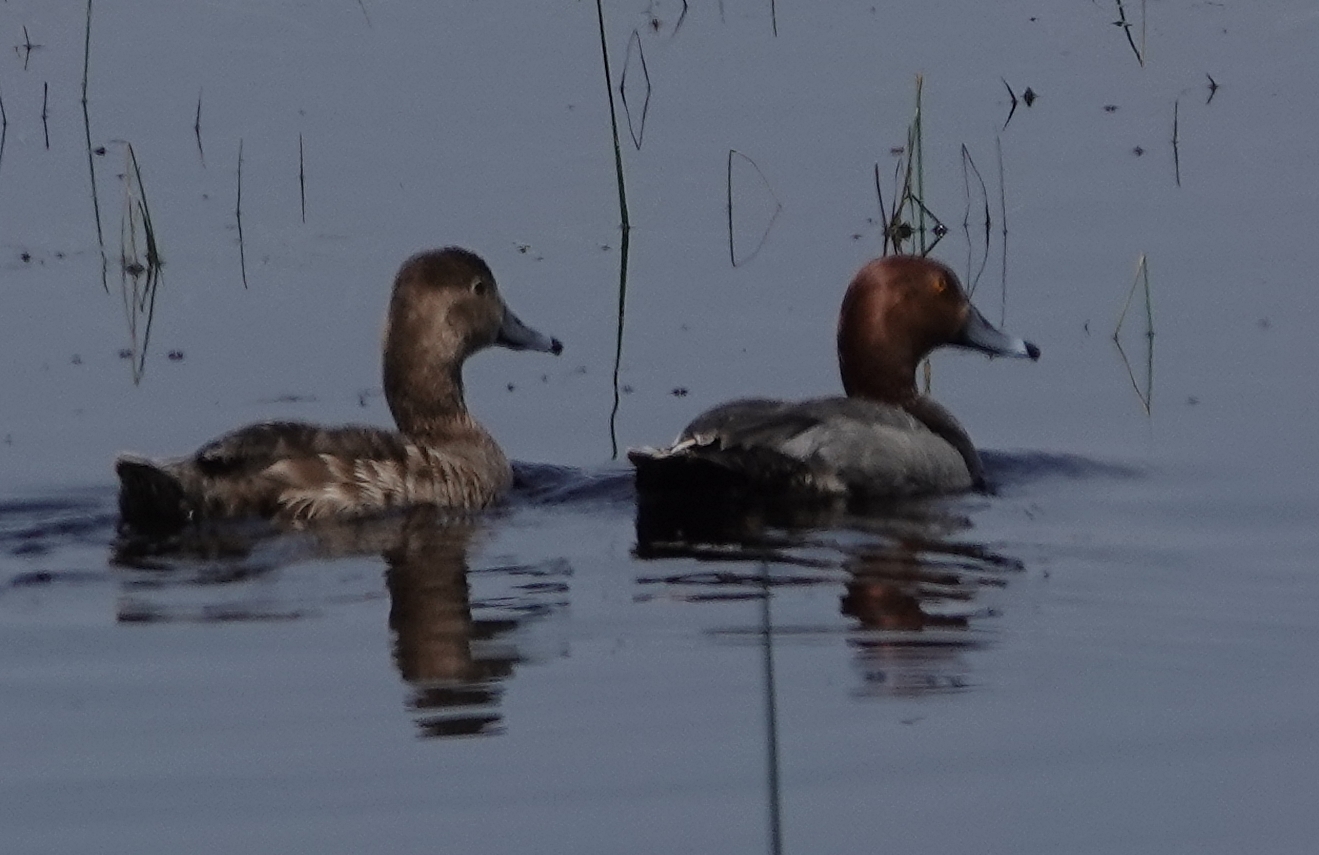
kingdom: Animalia
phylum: Chordata
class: Aves
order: Anseriformes
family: Anatidae
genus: Aythya
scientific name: Aythya americana
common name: Redhead
